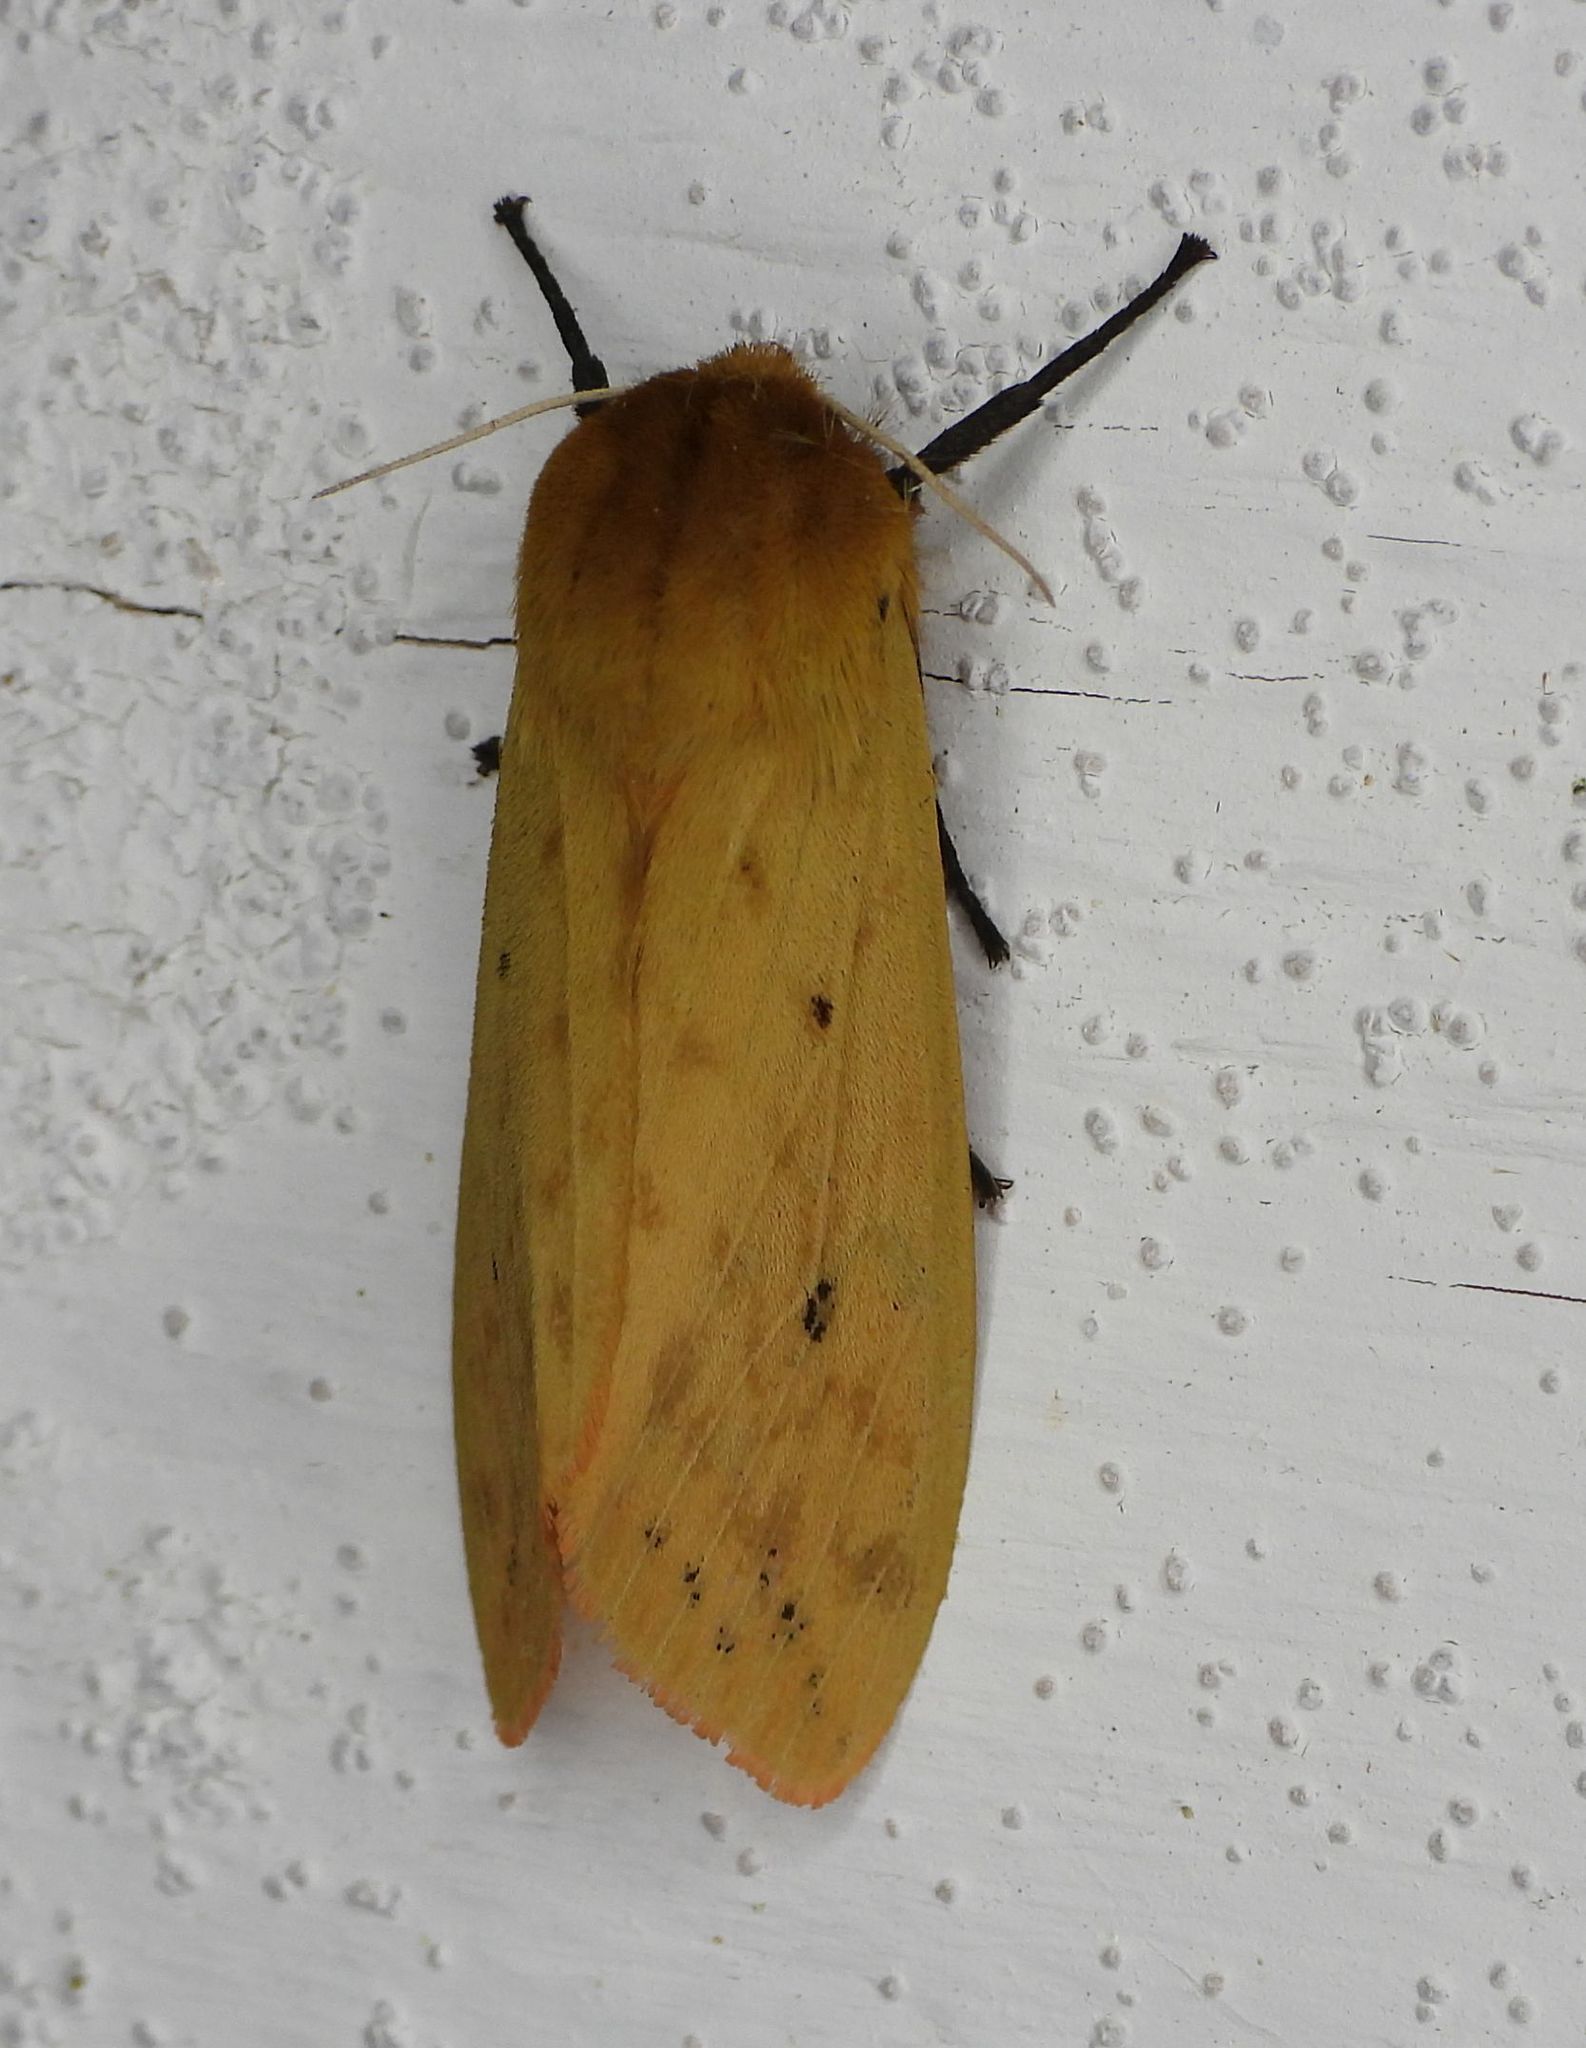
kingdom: Animalia
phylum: Arthropoda
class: Insecta
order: Lepidoptera
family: Erebidae
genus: Pyrrharctia
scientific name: Pyrrharctia isabella
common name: Isabella tiger moth
